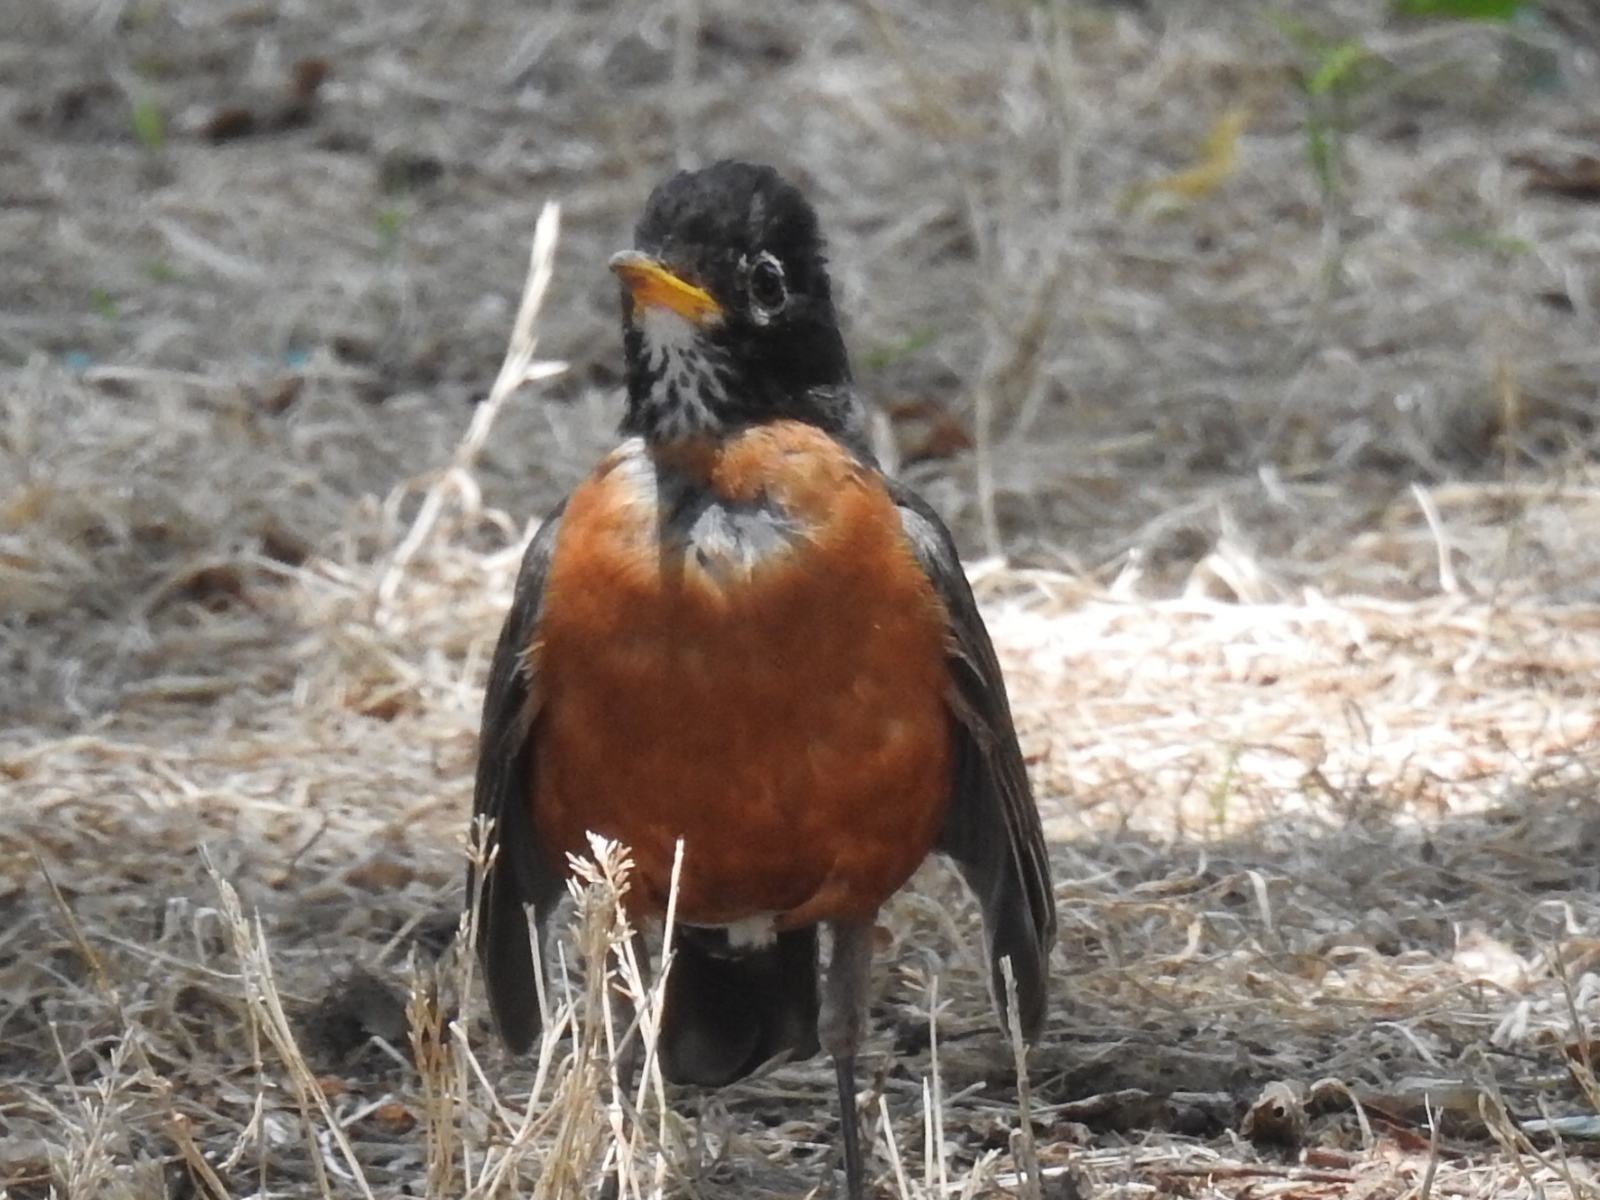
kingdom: Animalia
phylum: Chordata
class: Aves
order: Passeriformes
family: Turdidae
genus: Turdus
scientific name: Turdus migratorius
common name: American robin
